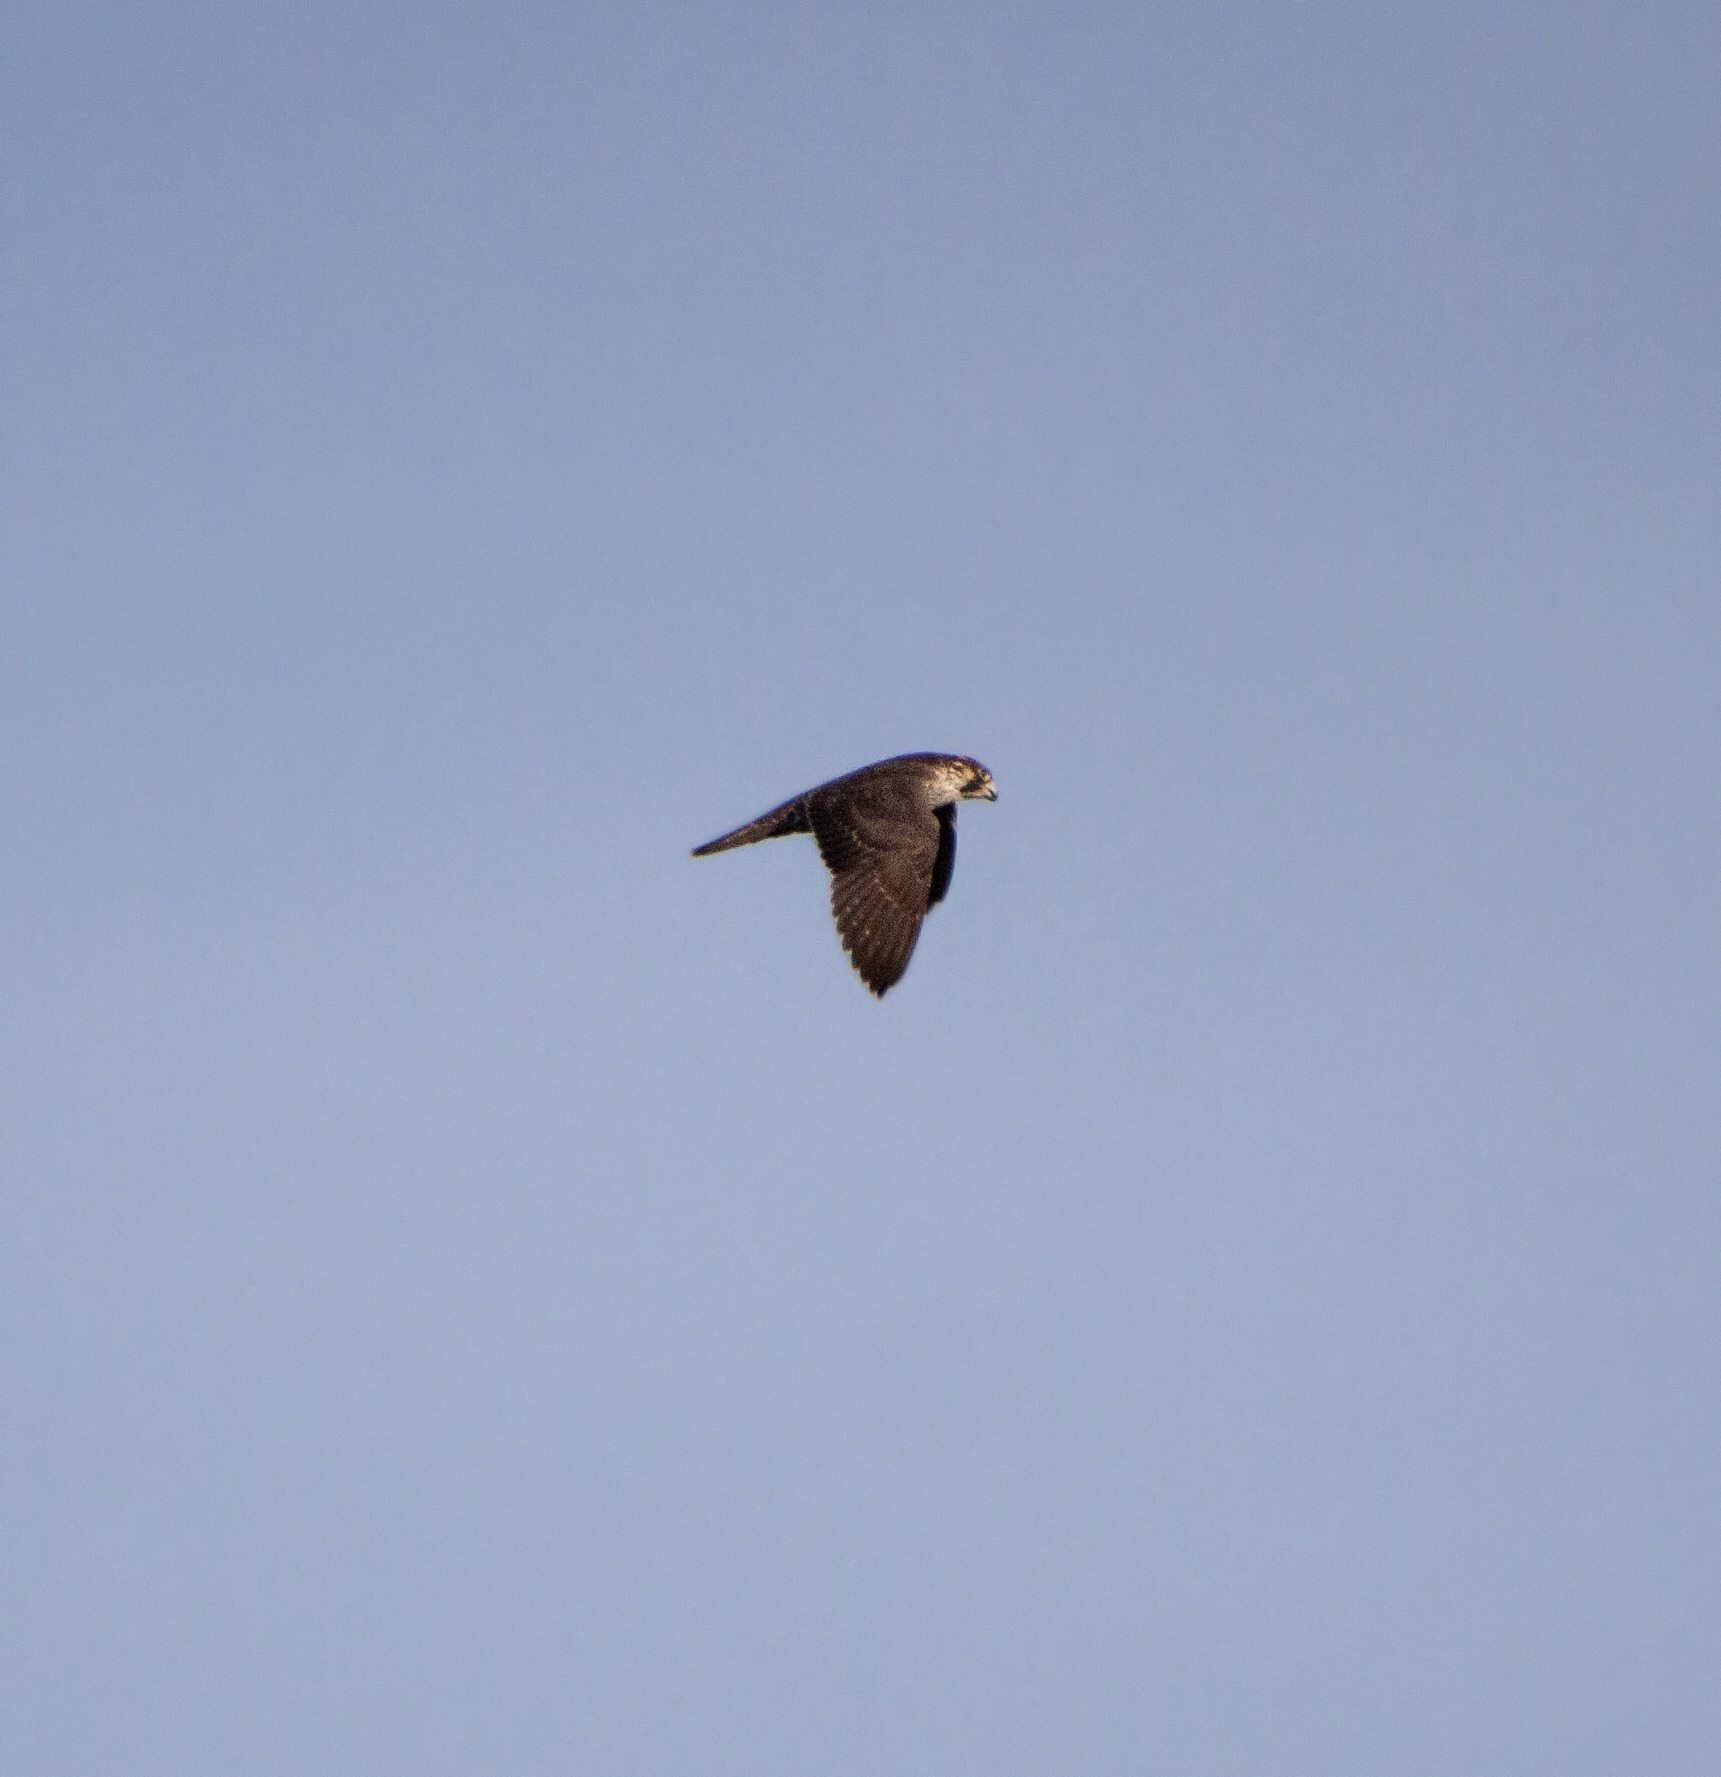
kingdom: Animalia
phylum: Chordata
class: Aves
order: Falconiformes
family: Falconidae
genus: Falco
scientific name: Falco peregrinus
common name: Peregrine falcon
